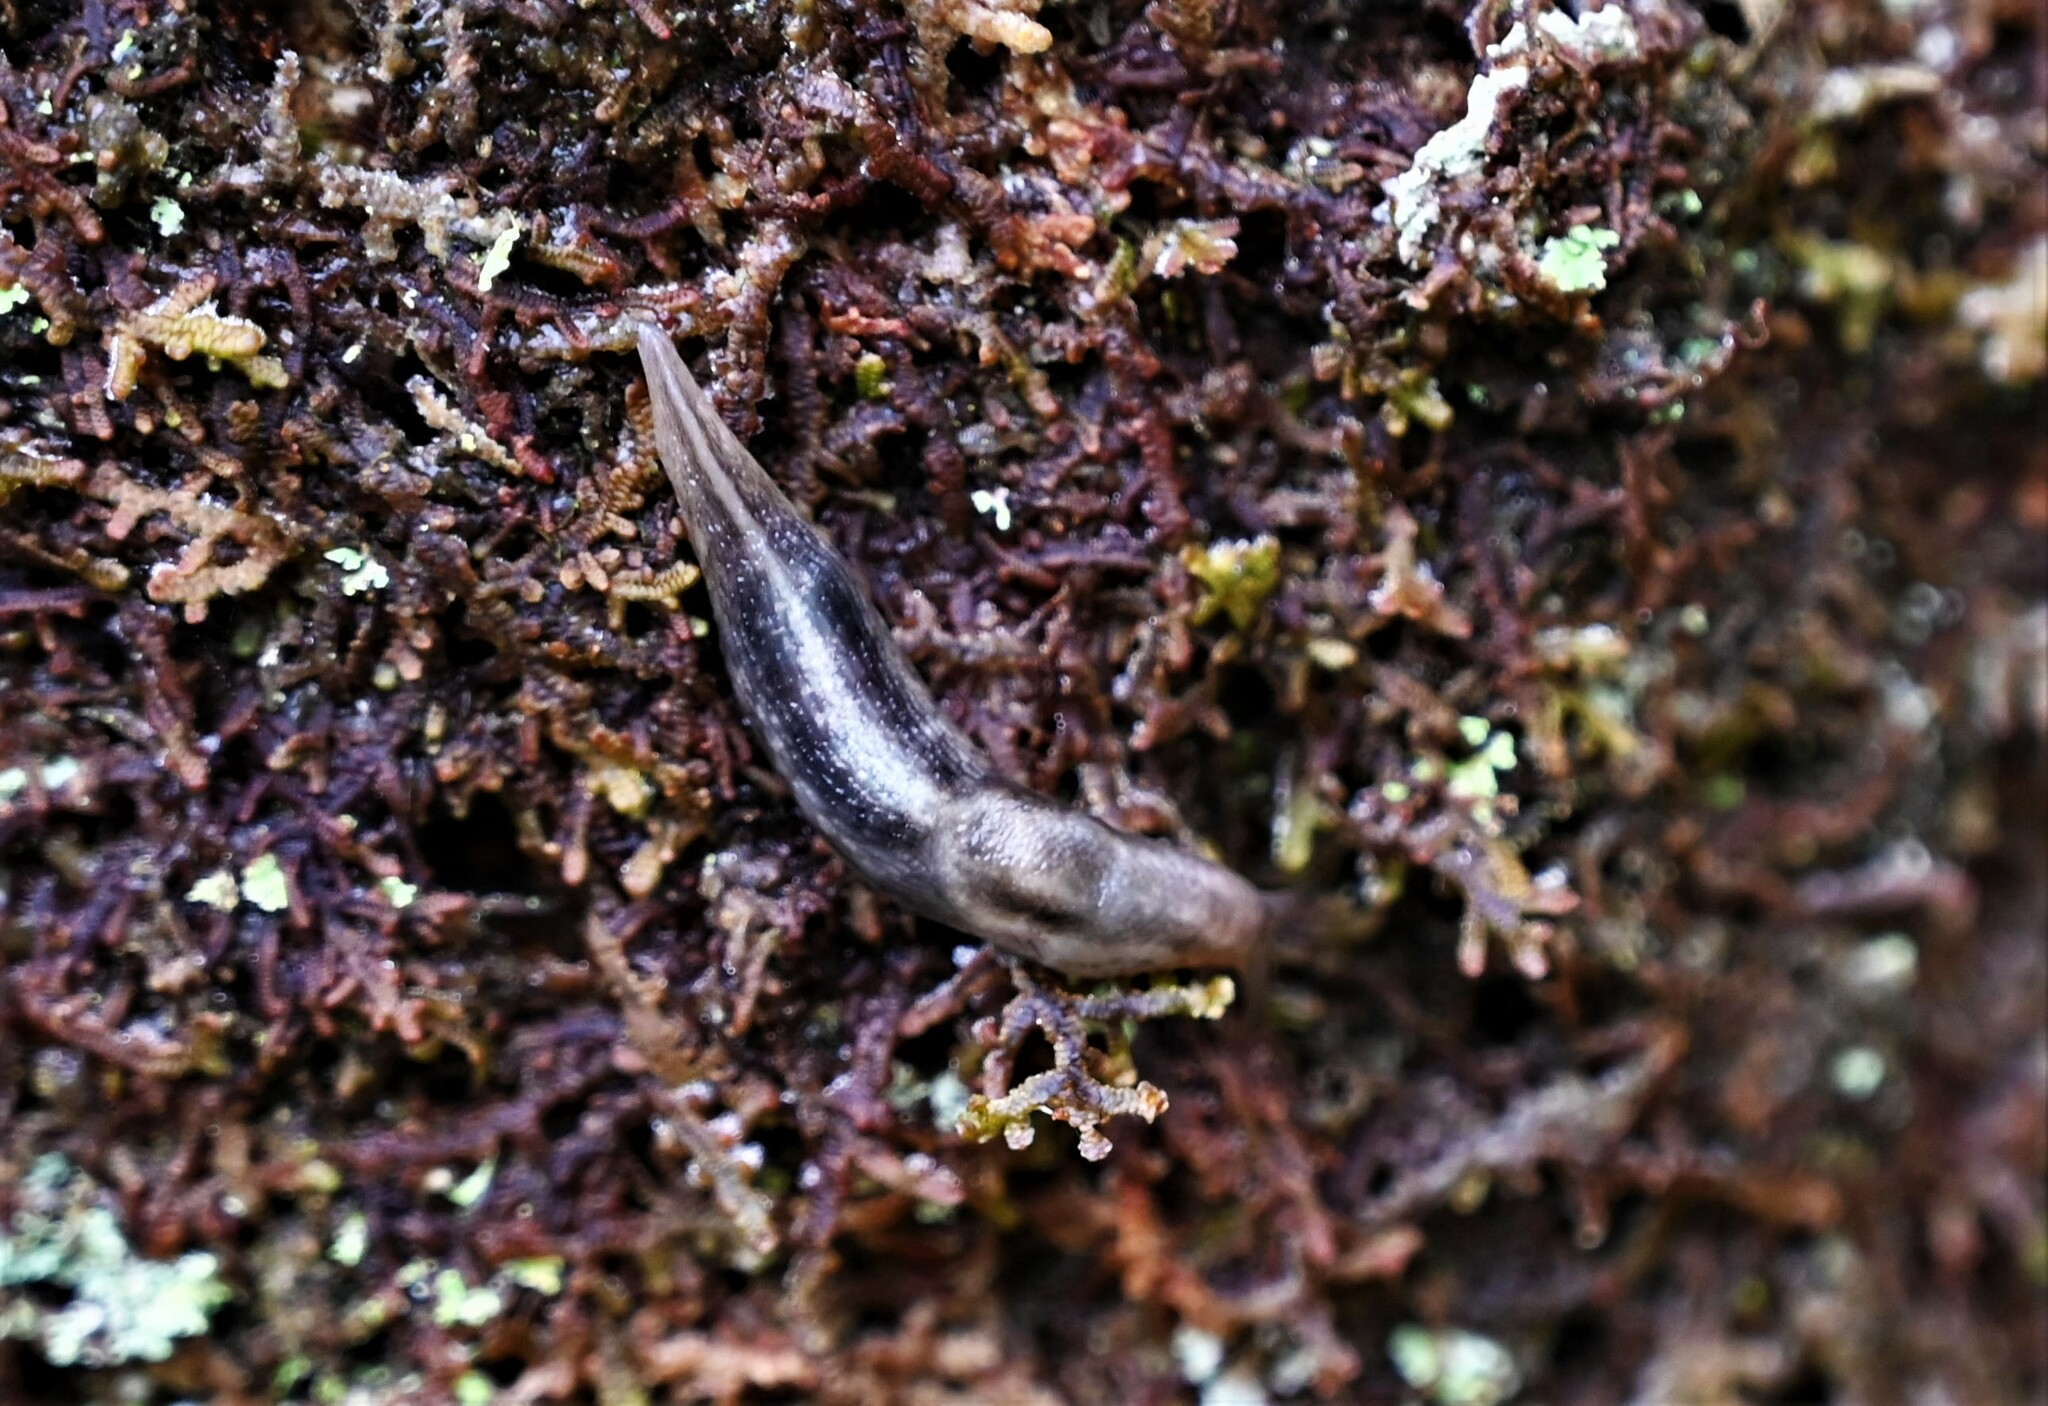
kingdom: Animalia
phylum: Mollusca
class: Gastropoda
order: Stylommatophora
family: Limacidae
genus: Lehmannia
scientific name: Lehmannia marginata
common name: Tree slug
